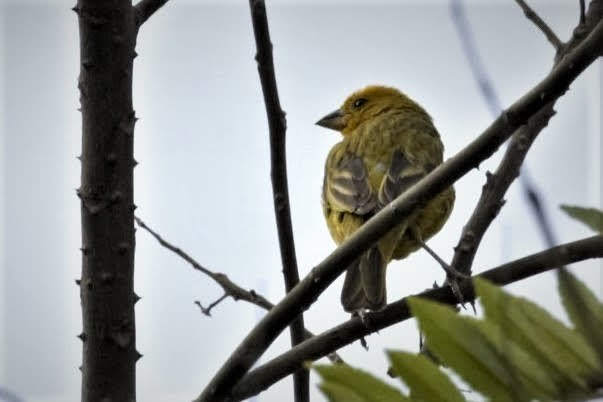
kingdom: Animalia
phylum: Chordata
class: Aves
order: Passeriformes
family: Thraupidae
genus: Sicalis
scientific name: Sicalis flaveola
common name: Saffron finch
